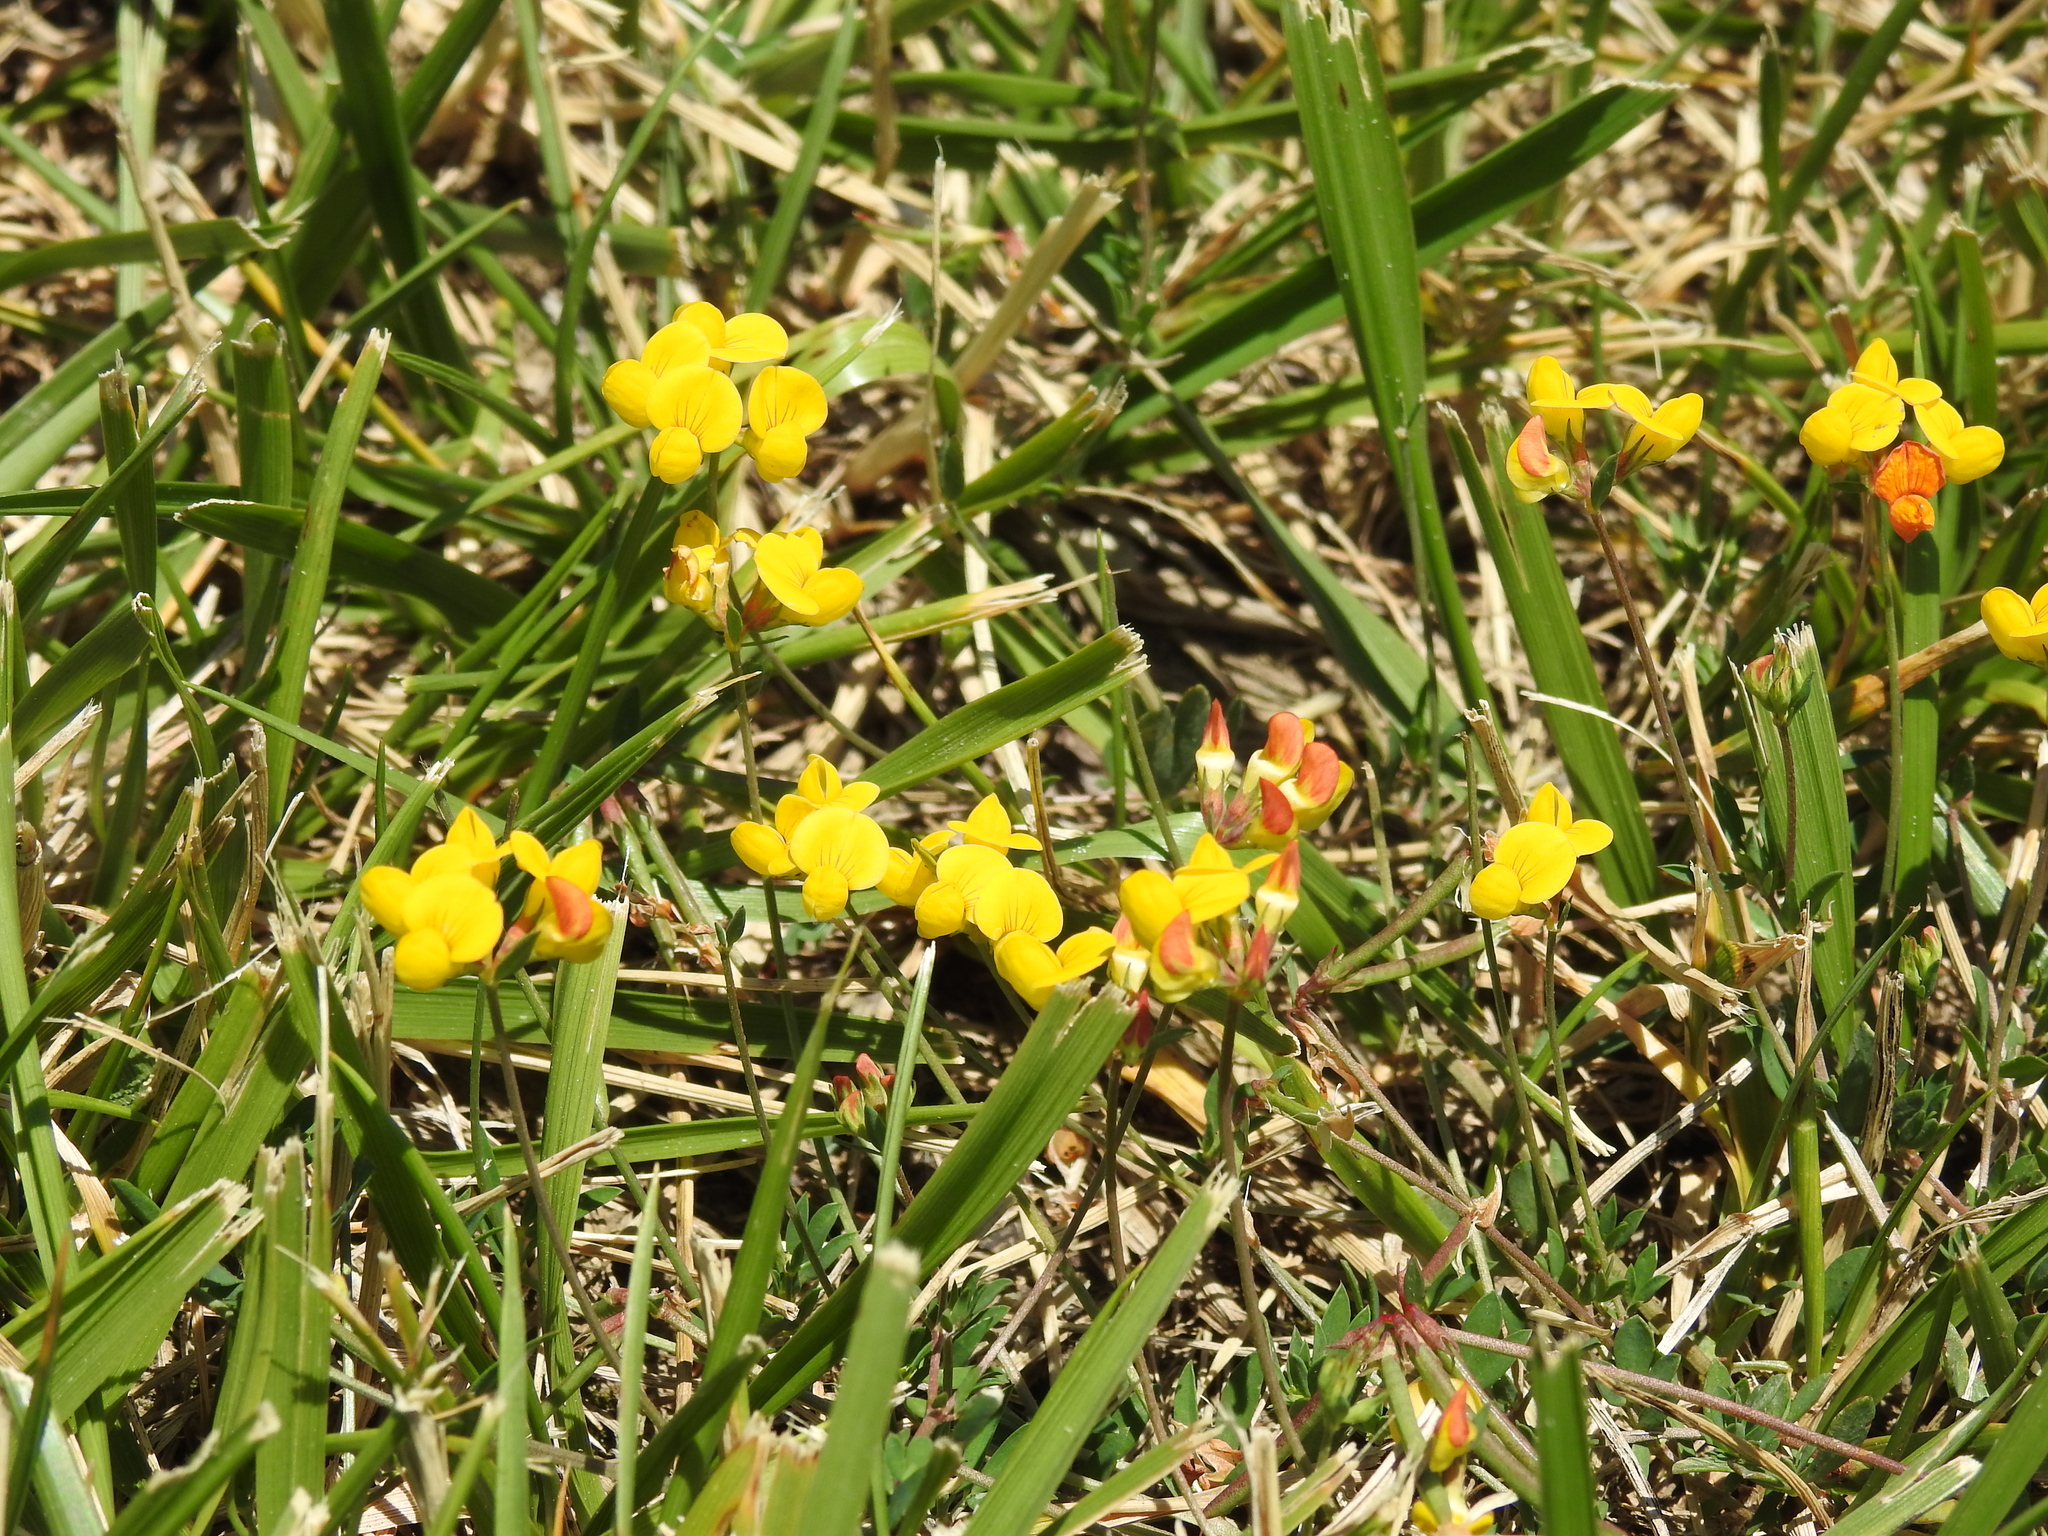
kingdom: Plantae
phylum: Tracheophyta
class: Magnoliopsida
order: Fabales
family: Fabaceae
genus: Lotus
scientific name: Lotus corniculatus
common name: Common bird's-foot-trefoil
